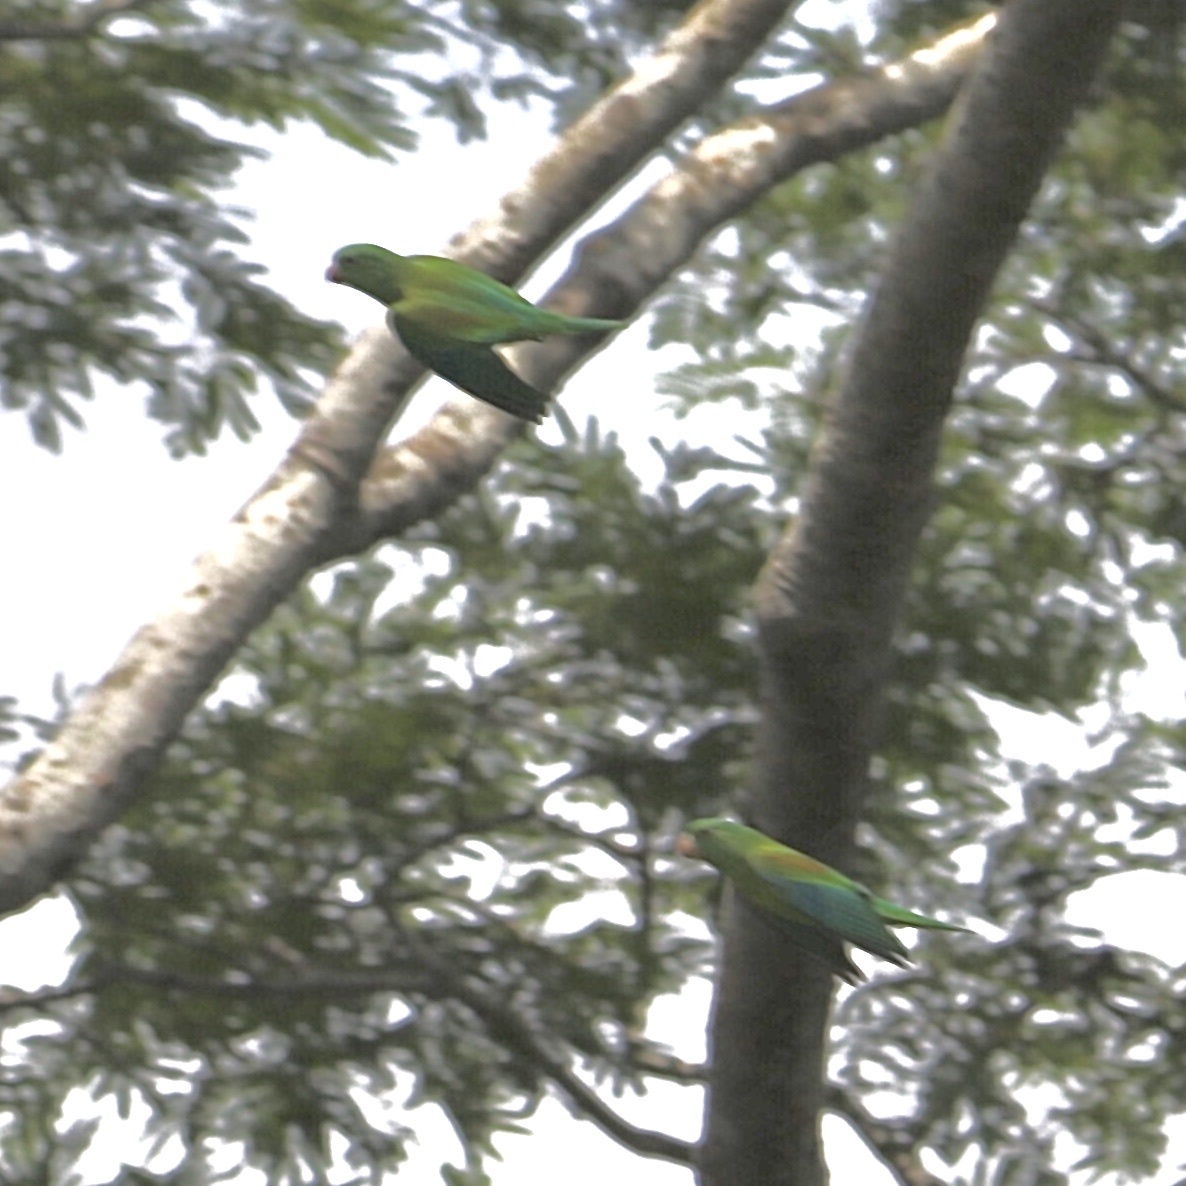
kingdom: Animalia
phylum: Chordata
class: Aves
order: Psittaciformes
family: Psittacidae
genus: Brotogeris
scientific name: Brotogeris jugularis
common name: Orange-chinned parakeet
